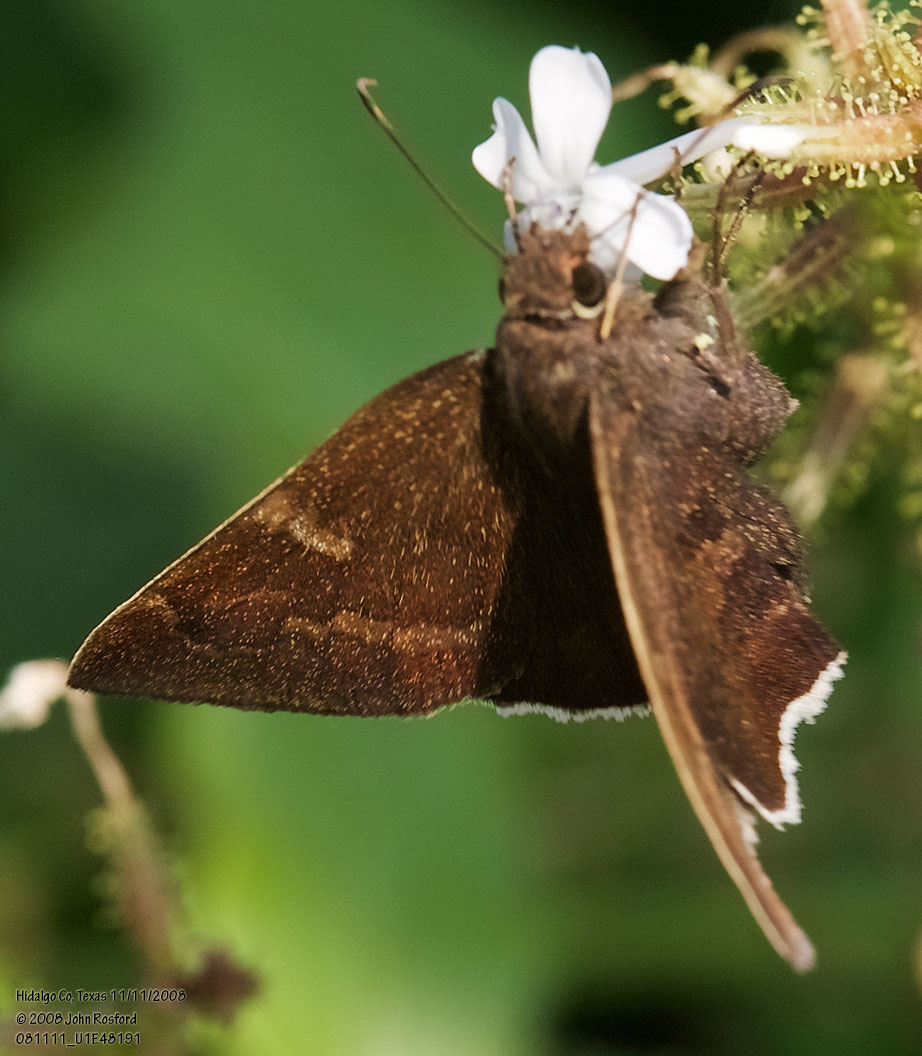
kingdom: Animalia
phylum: Arthropoda
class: Insecta
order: Lepidoptera
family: Hesperiidae
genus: Achalarus
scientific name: Achalarus Murgaria albociliatus
